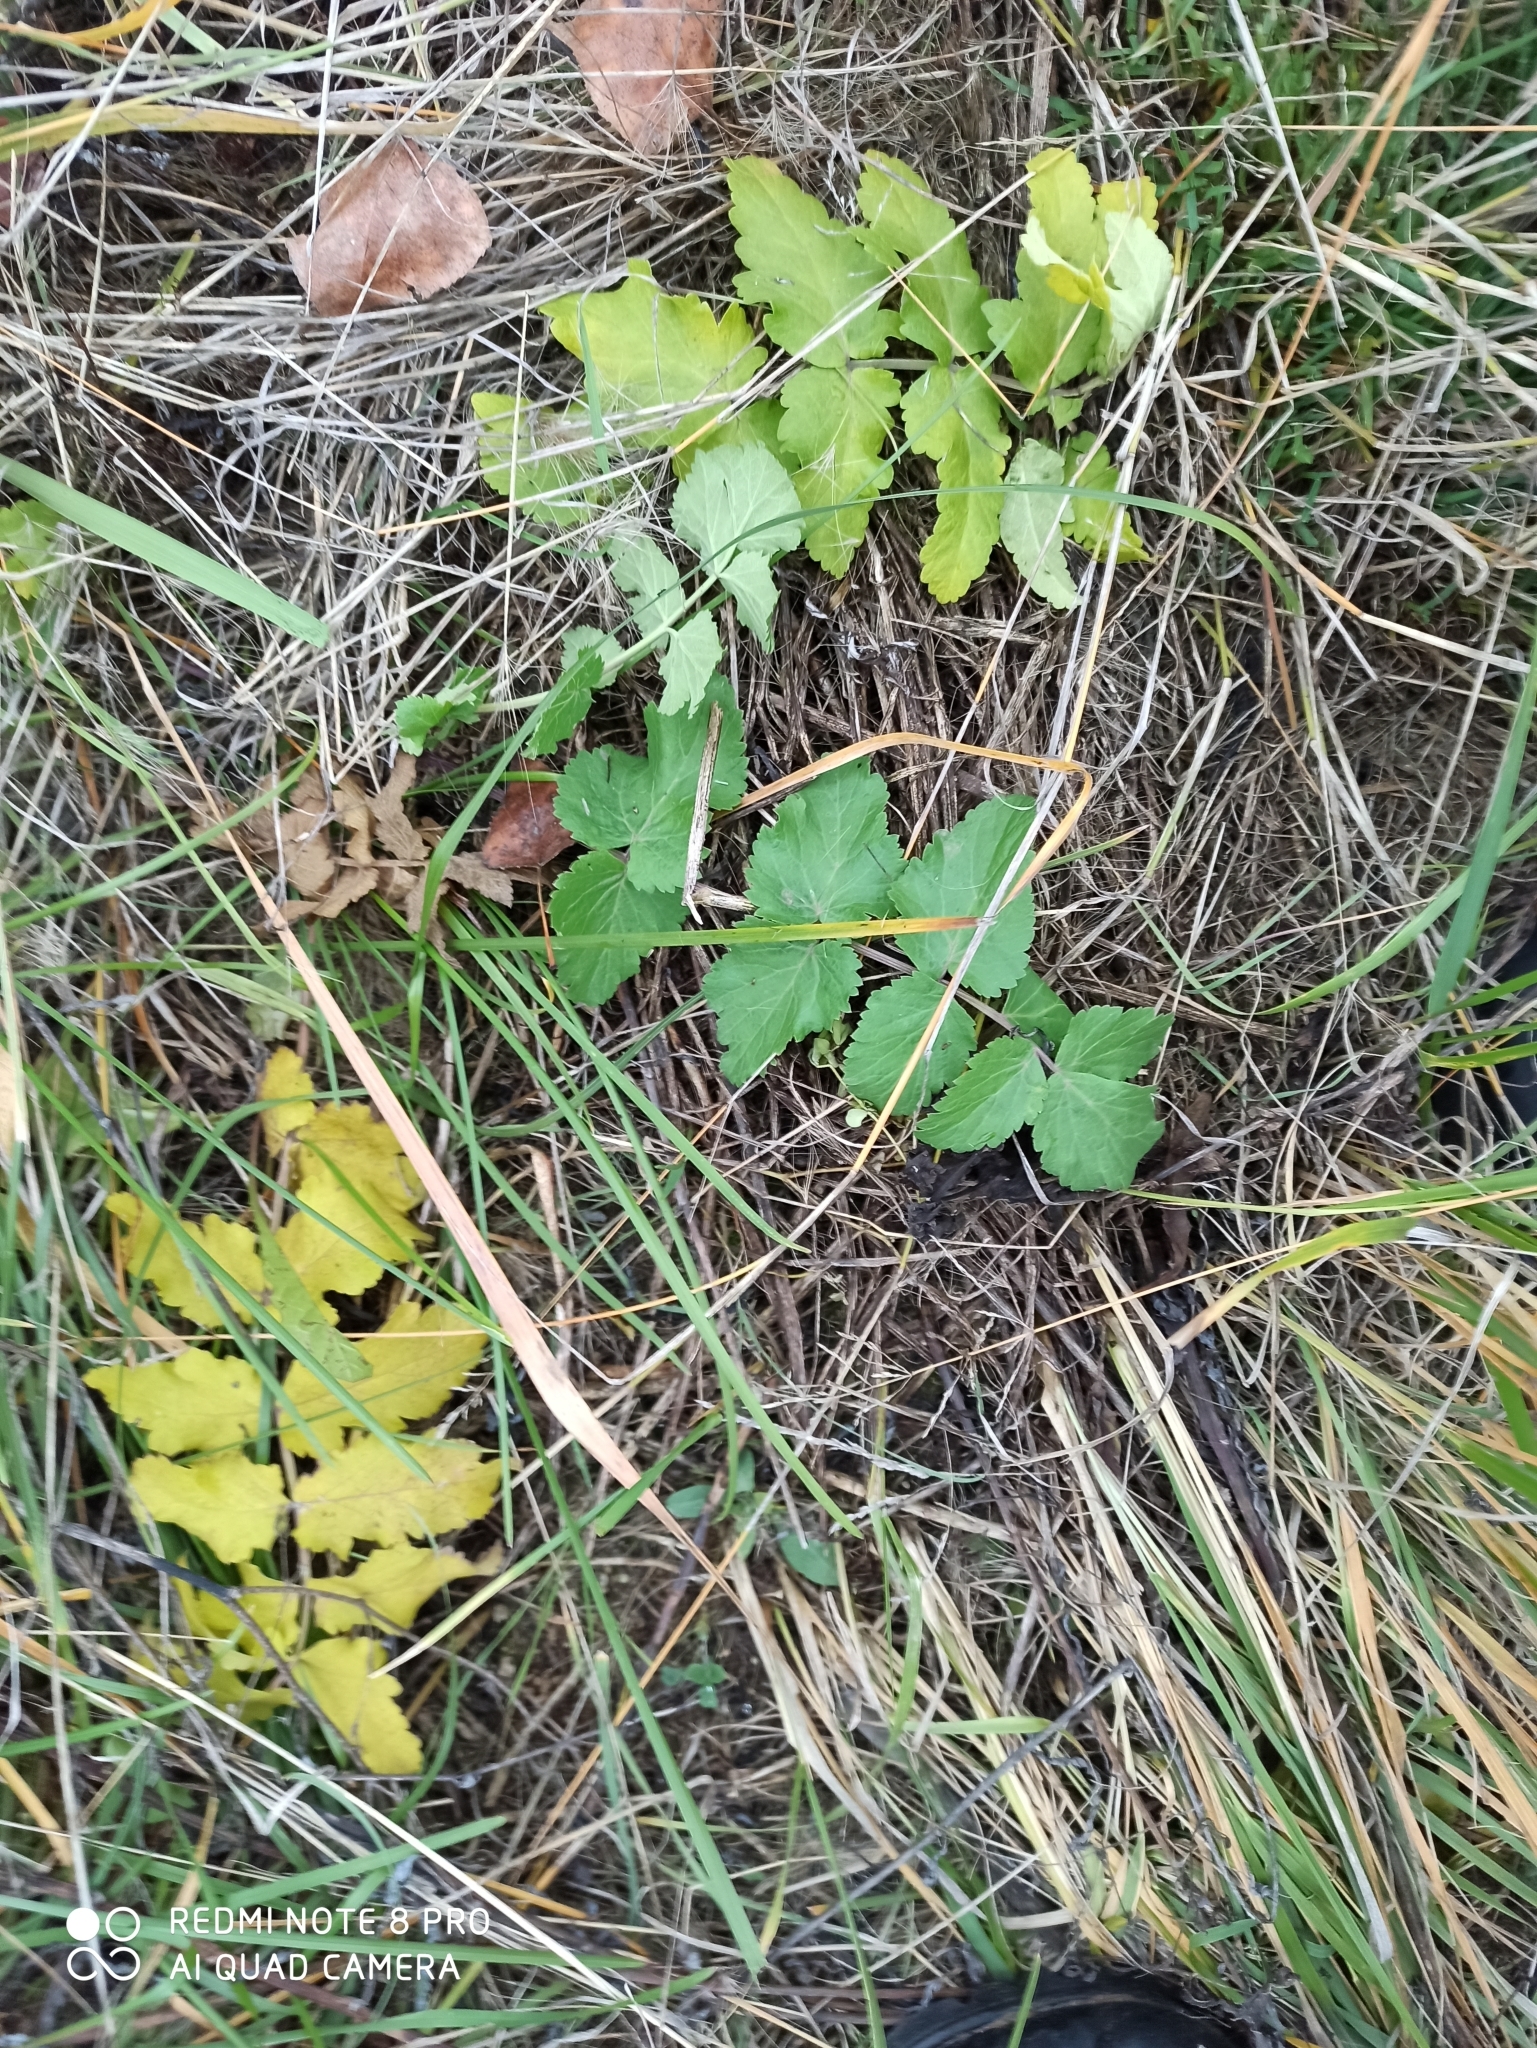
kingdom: Plantae
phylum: Tracheophyta
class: Magnoliopsida
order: Apiales
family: Apiaceae
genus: Pastinaca
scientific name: Pastinaca sativa
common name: Wild parsnip
